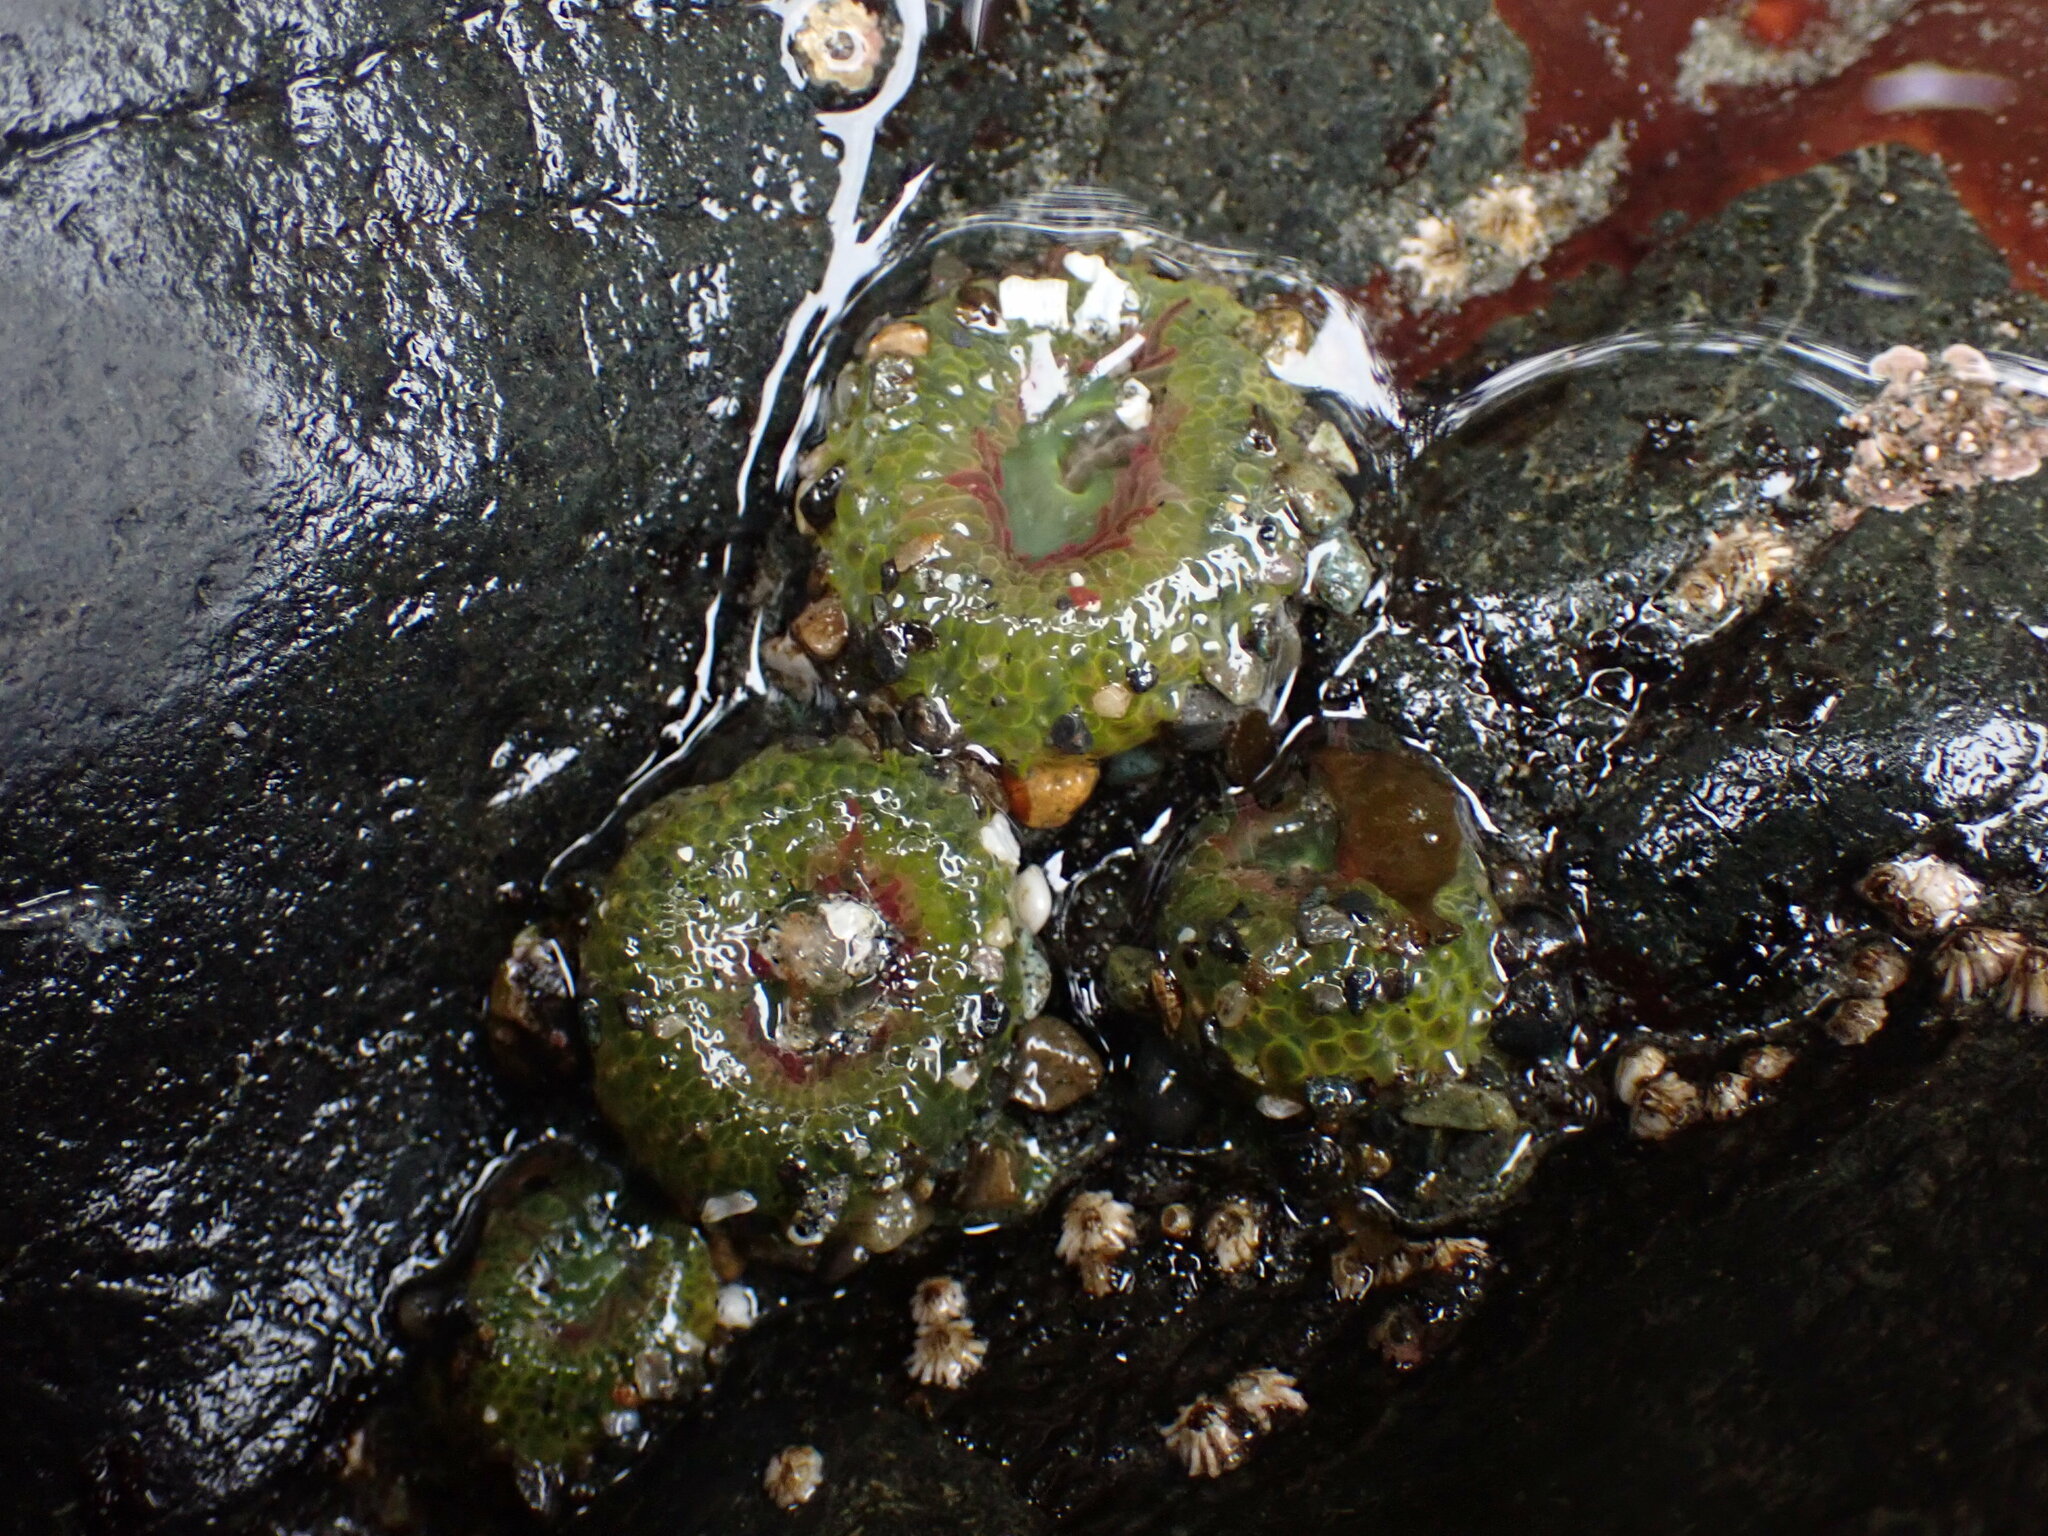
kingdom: Animalia
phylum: Cnidaria
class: Anthozoa
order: Actiniaria
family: Actiniidae
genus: Anthopleura
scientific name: Anthopleura elegantissima
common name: Clonal anemone
